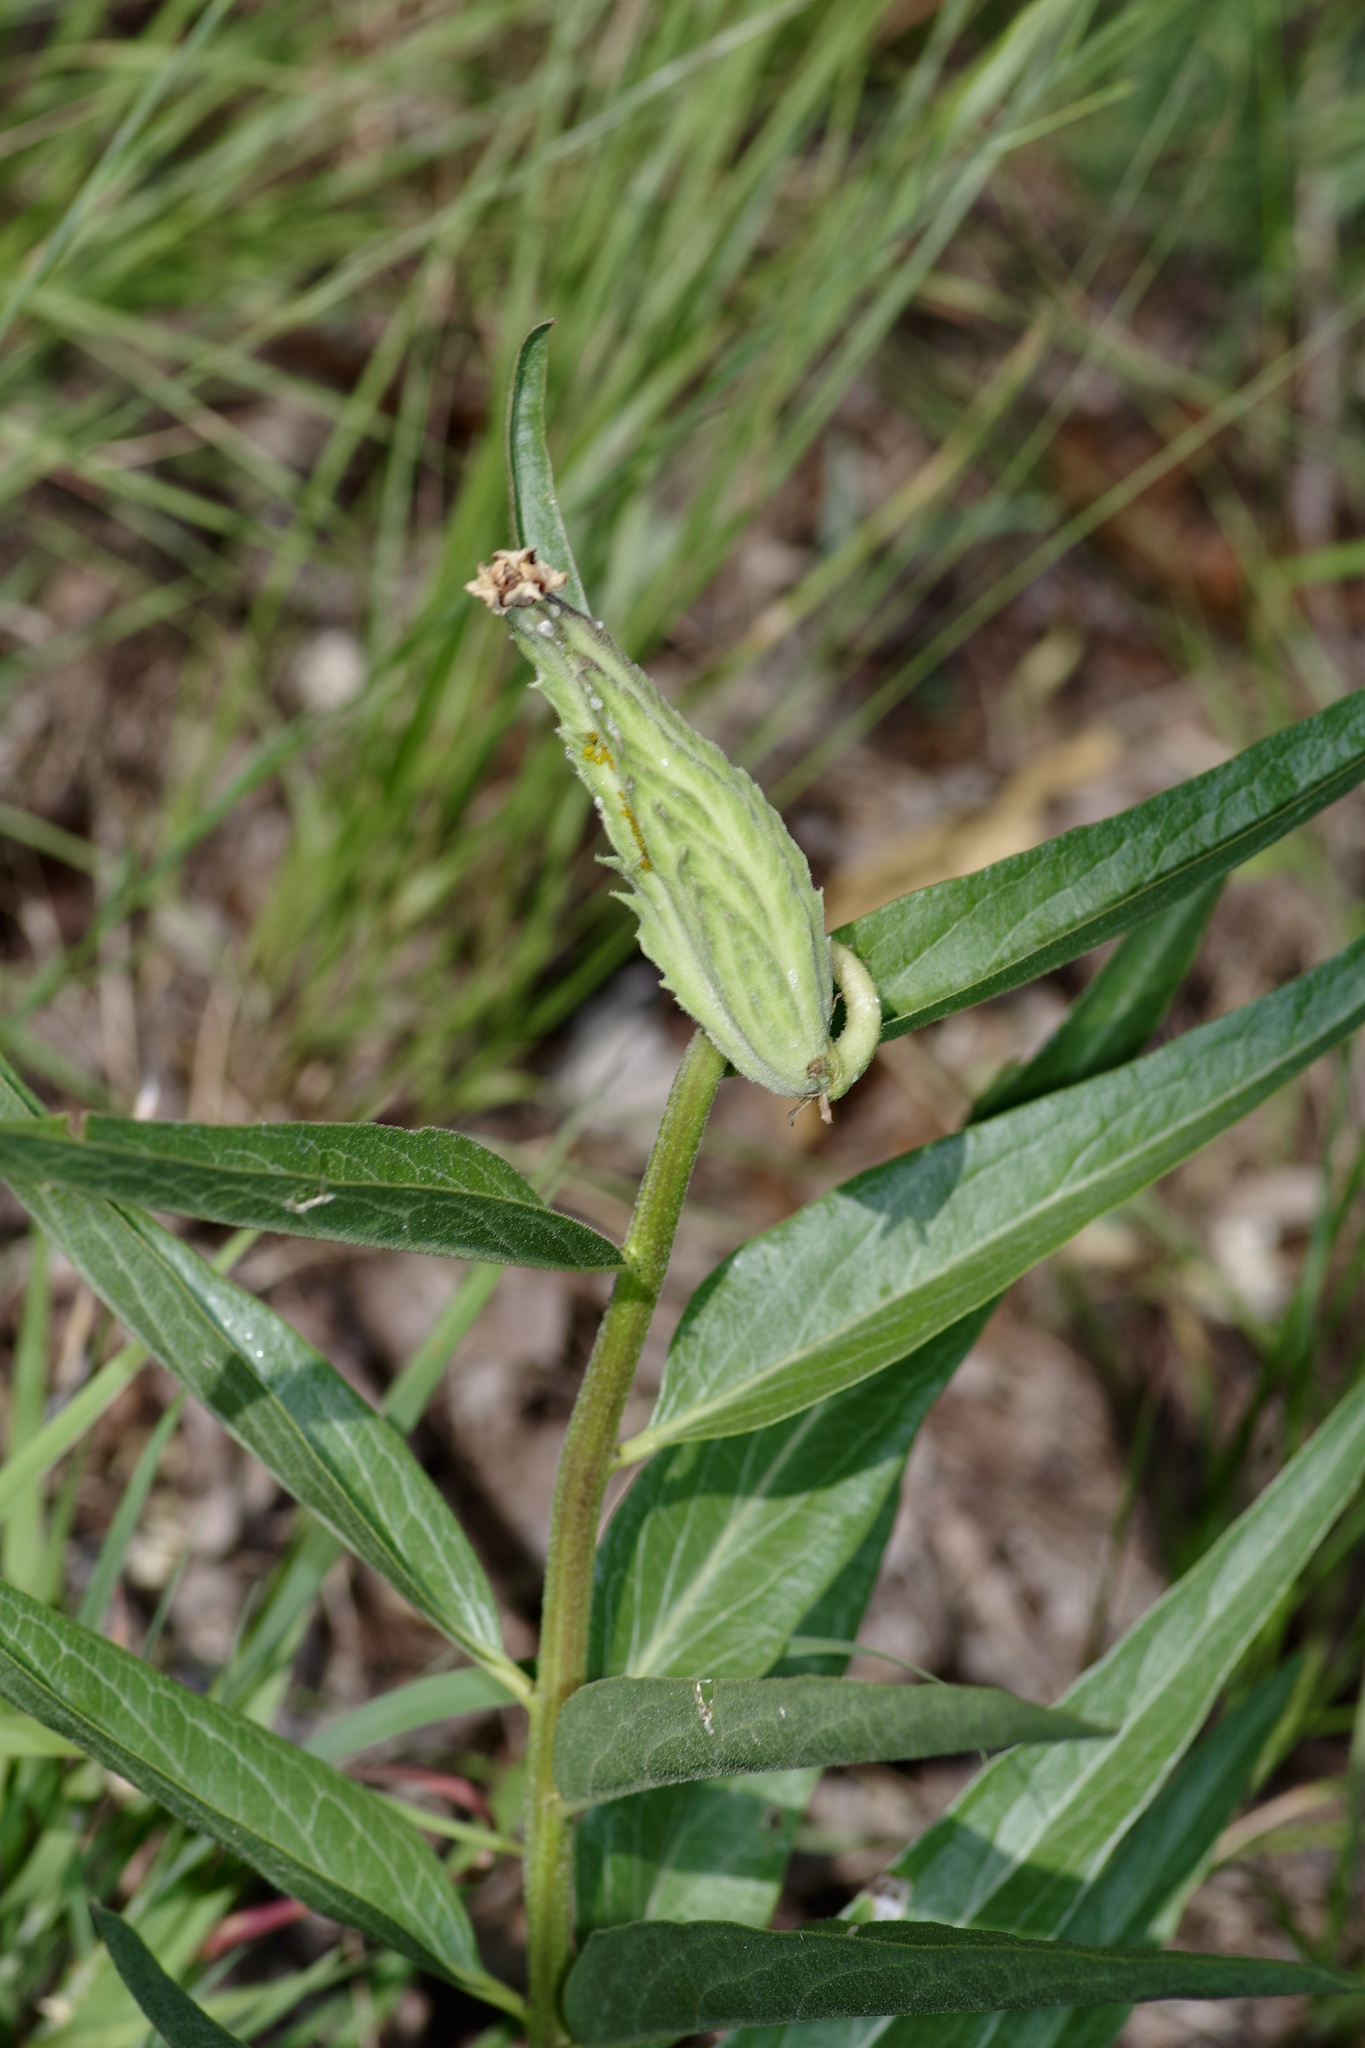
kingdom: Plantae
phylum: Tracheophyta
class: Magnoliopsida
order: Gentianales
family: Apocynaceae
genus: Asclepias
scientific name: Asclepias asperula
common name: Antelope horns
